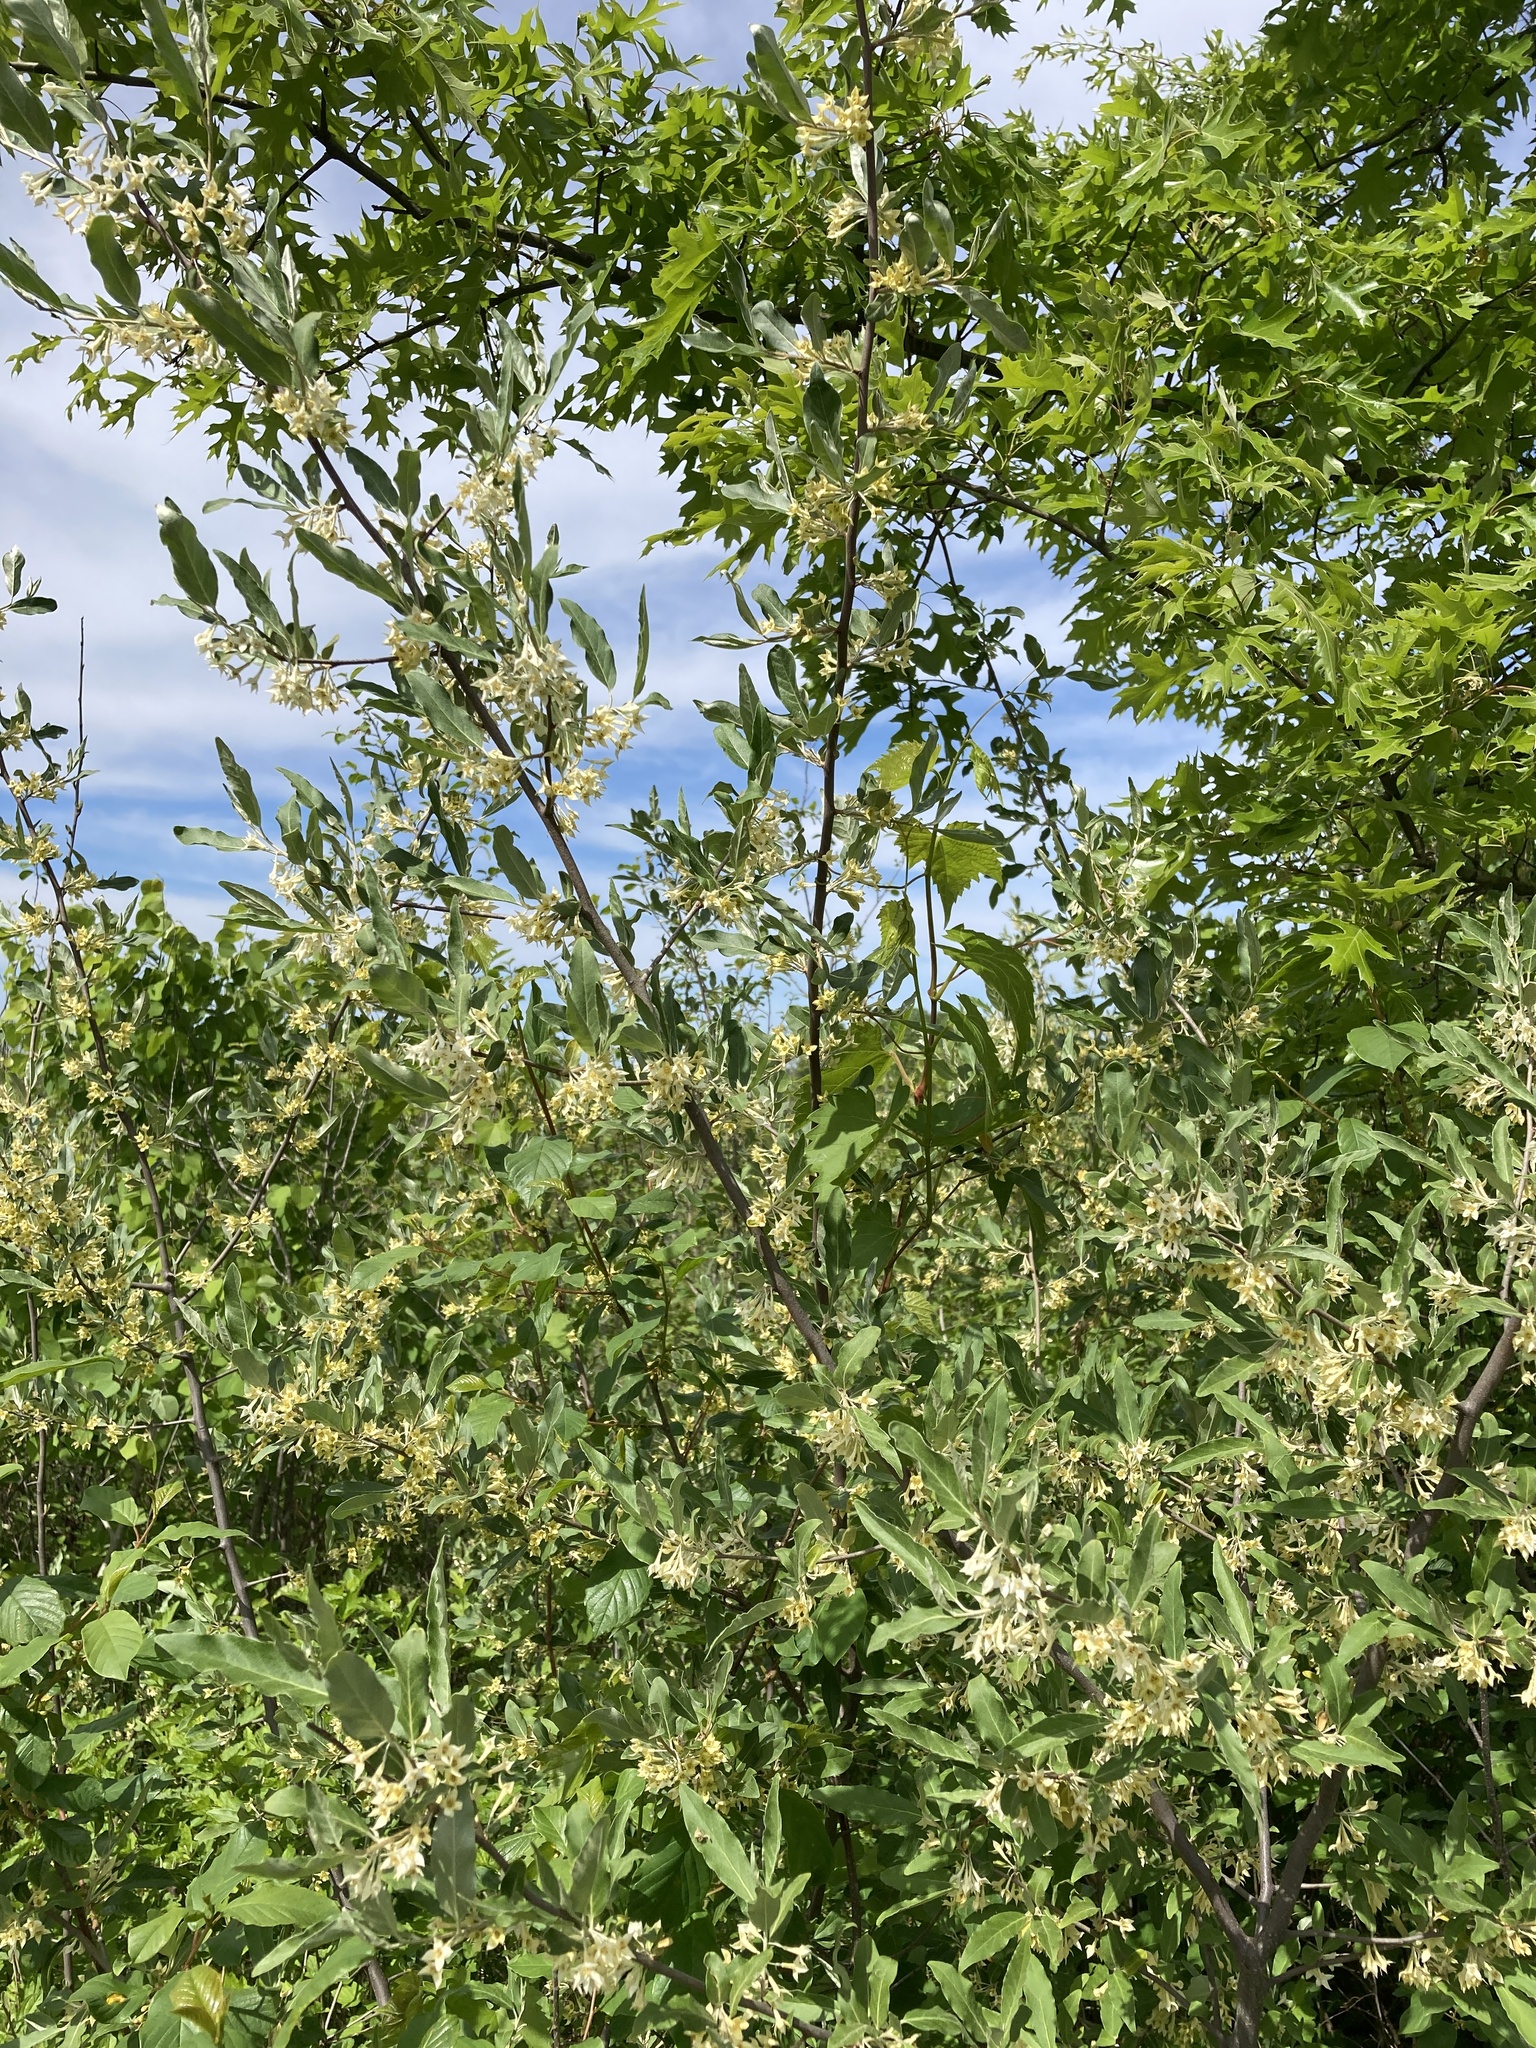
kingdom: Plantae
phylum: Tracheophyta
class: Magnoliopsida
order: Rosales
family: Elaeagnaceae
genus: Elaeagnus
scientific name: Elaeagnus umbellata
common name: Autumn olive
